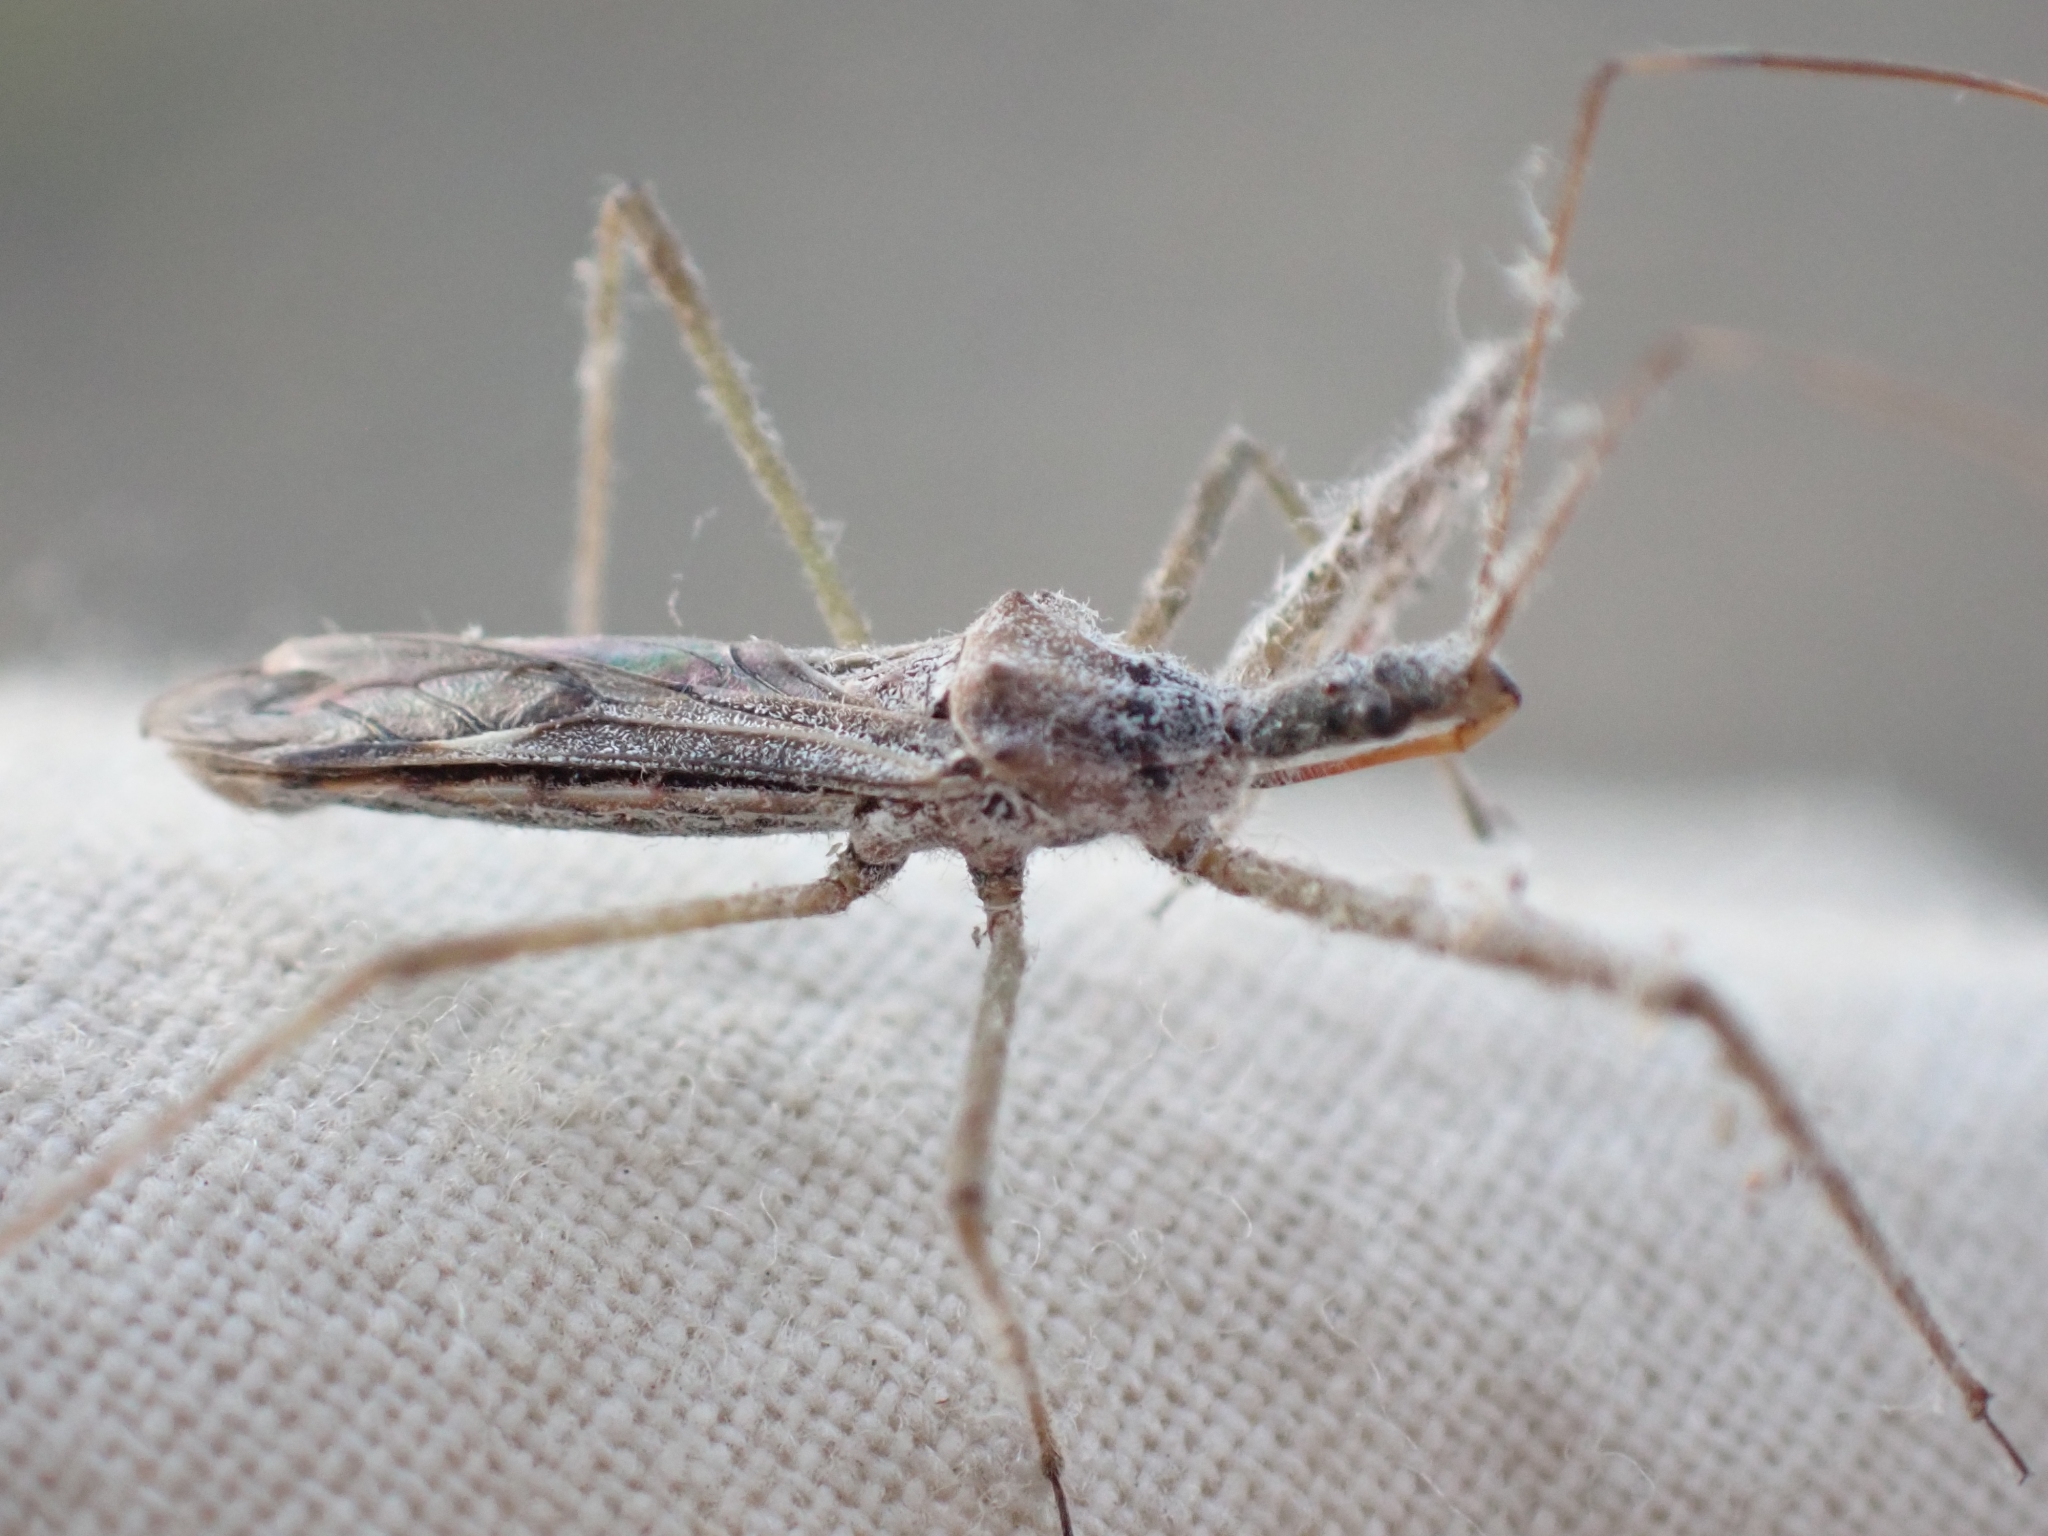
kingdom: Animalia
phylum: Arthropoda
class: Insecta
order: Hemiptera
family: Reduviidae
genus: Zelus
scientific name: Zelus tetracanthus
